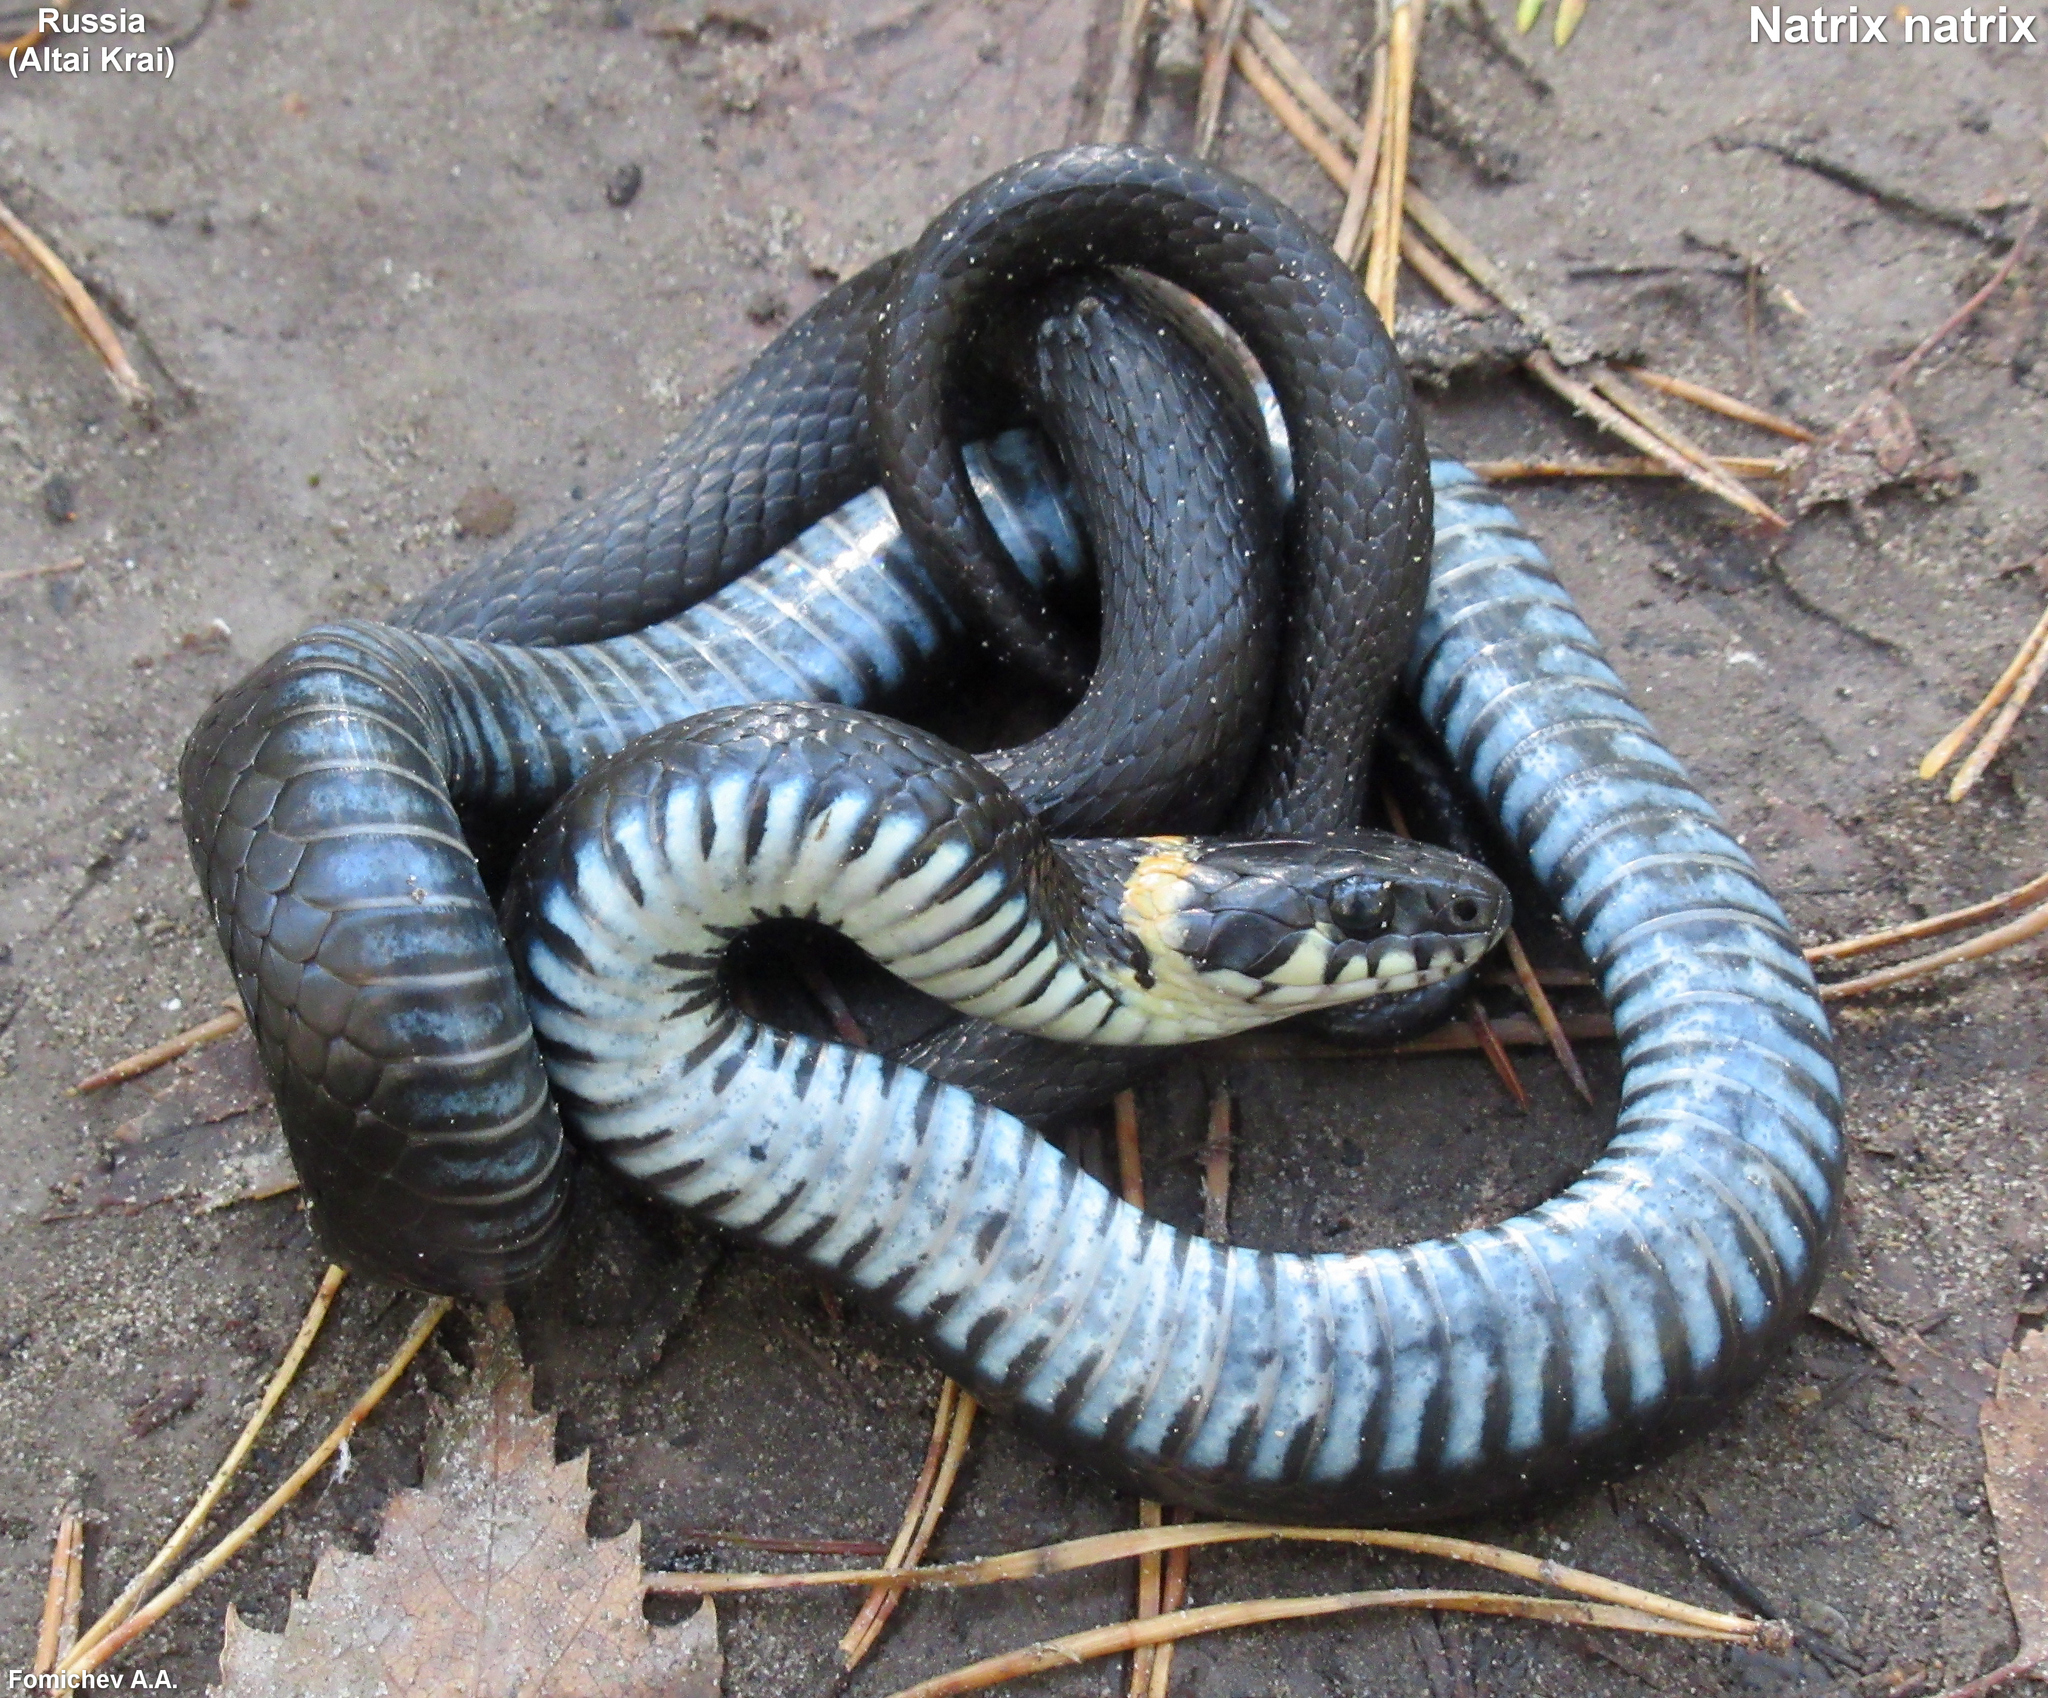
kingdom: Animalia
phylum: Chordata
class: Squamata
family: Colubridae
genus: Natrix
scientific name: Natrix natrix
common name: Grass snake
